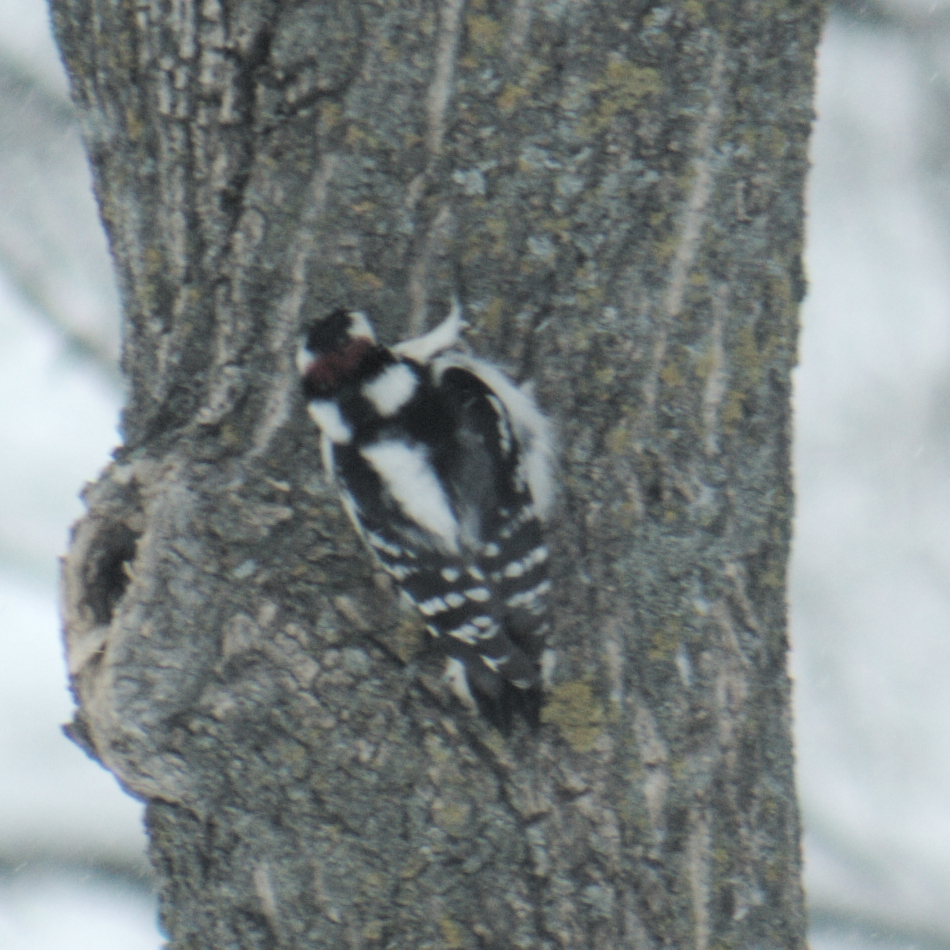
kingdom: Animalia
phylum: Chordata
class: Aves
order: Piciformes
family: Picidae
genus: Dryobates
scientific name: Dryobates pubescens
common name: Downy woodpecker
